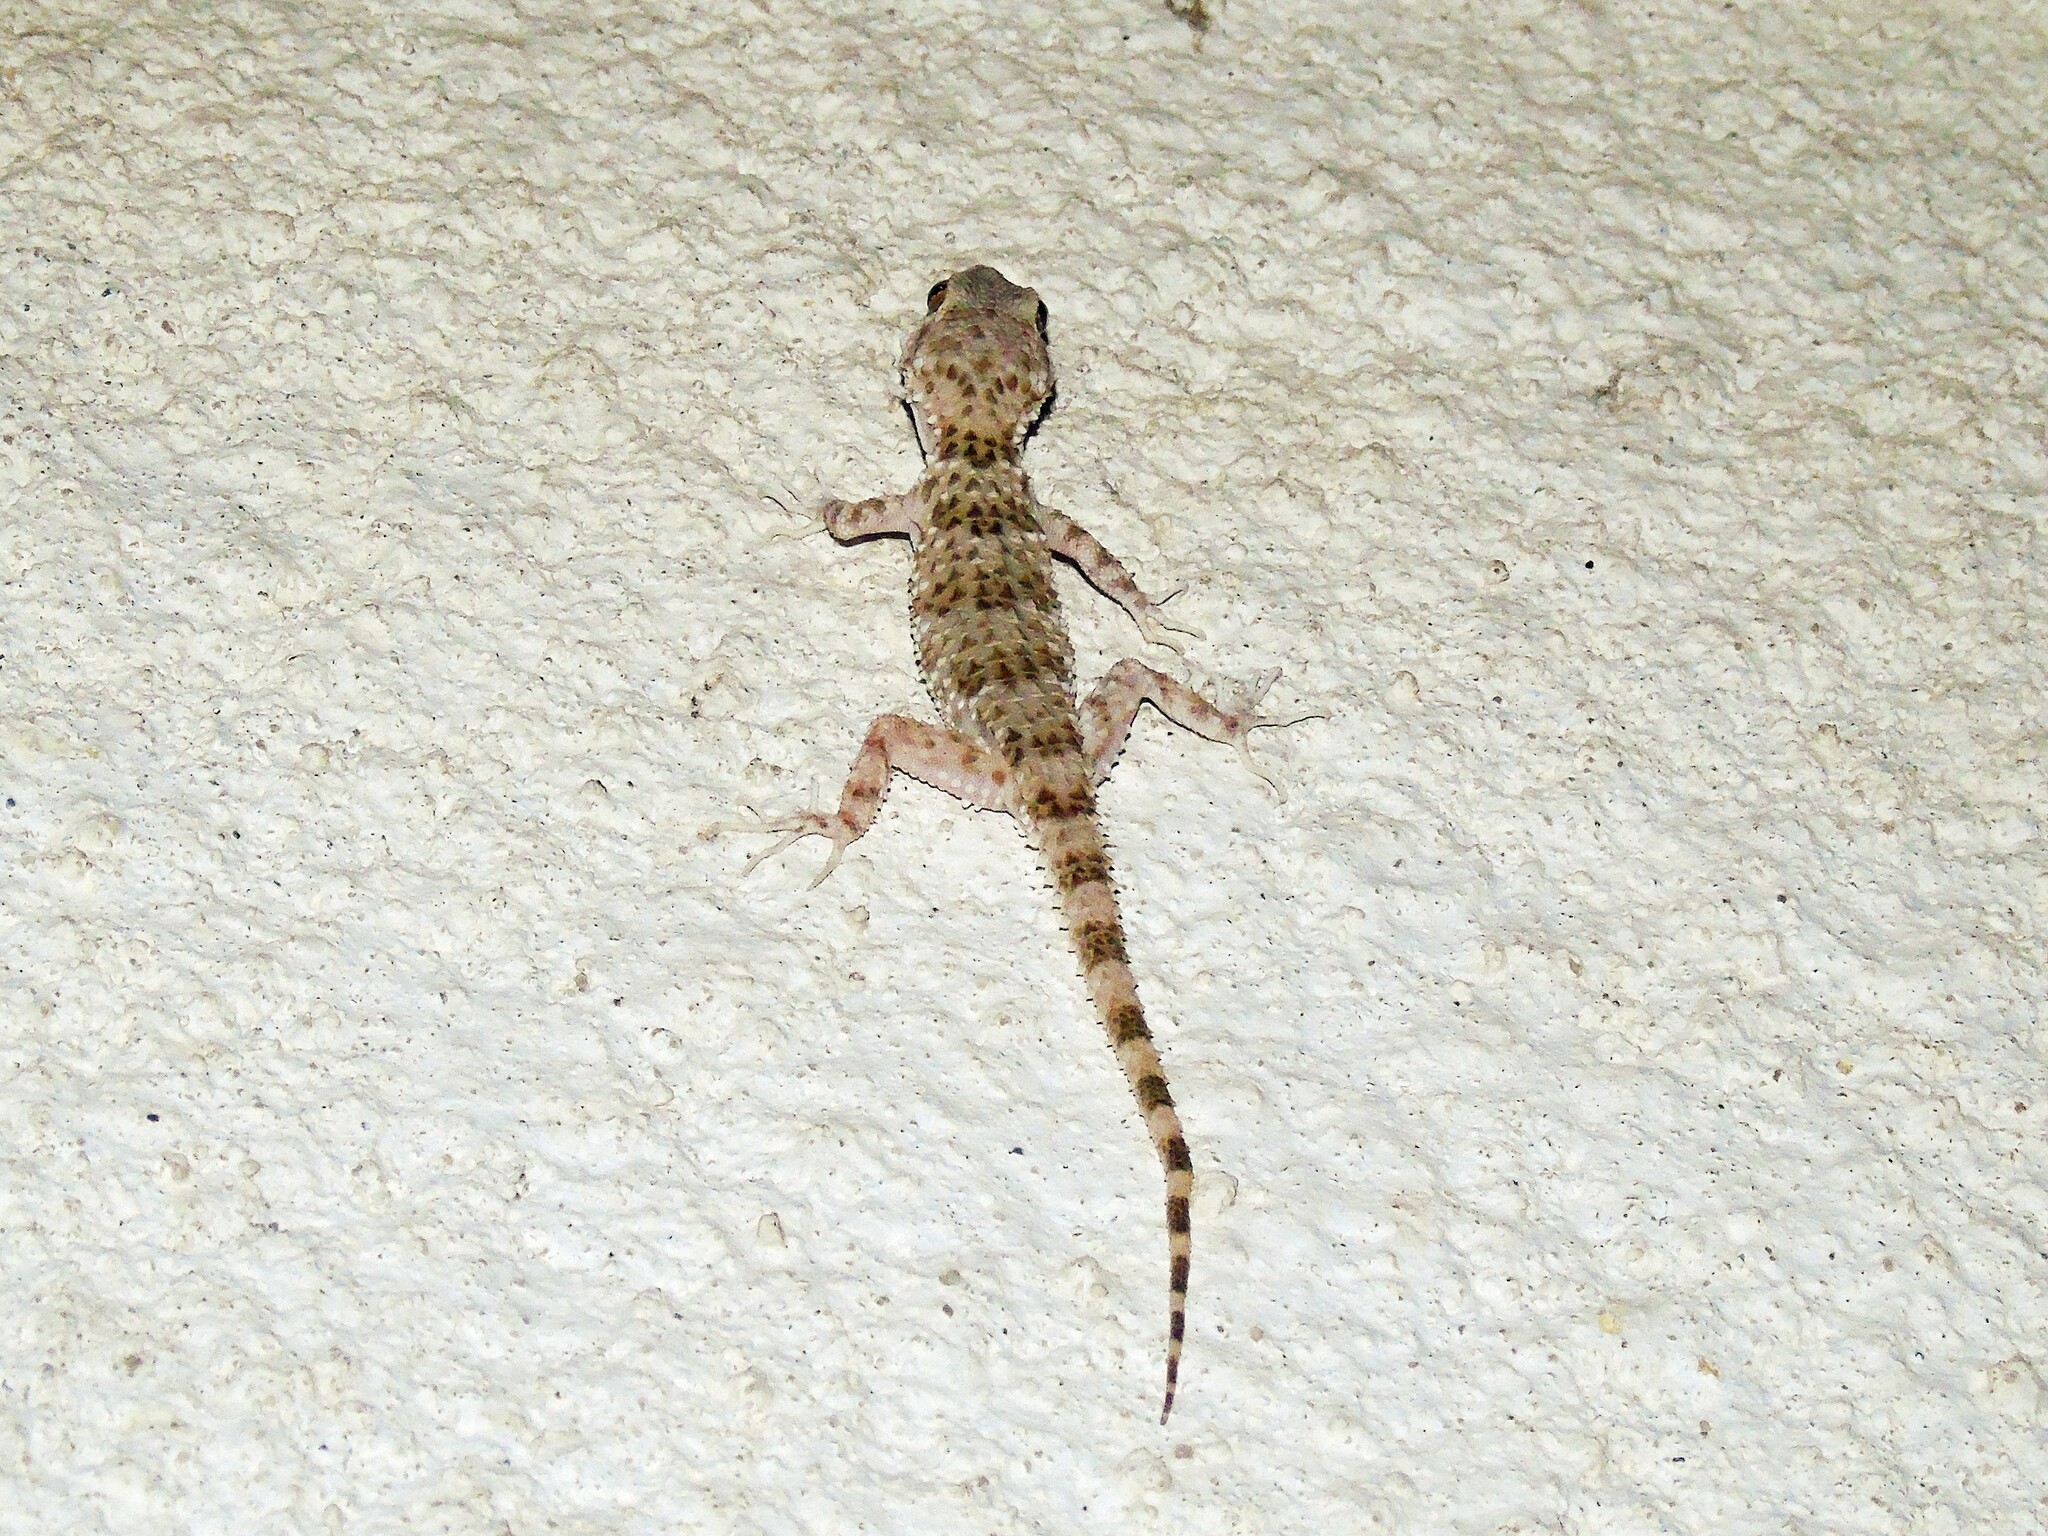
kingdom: Animalia
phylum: Chordata
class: Squamata
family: Gekkonidae
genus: Tenuidactylus
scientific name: Tenuidactylus caspius
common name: Caspian bent-toed gecko
